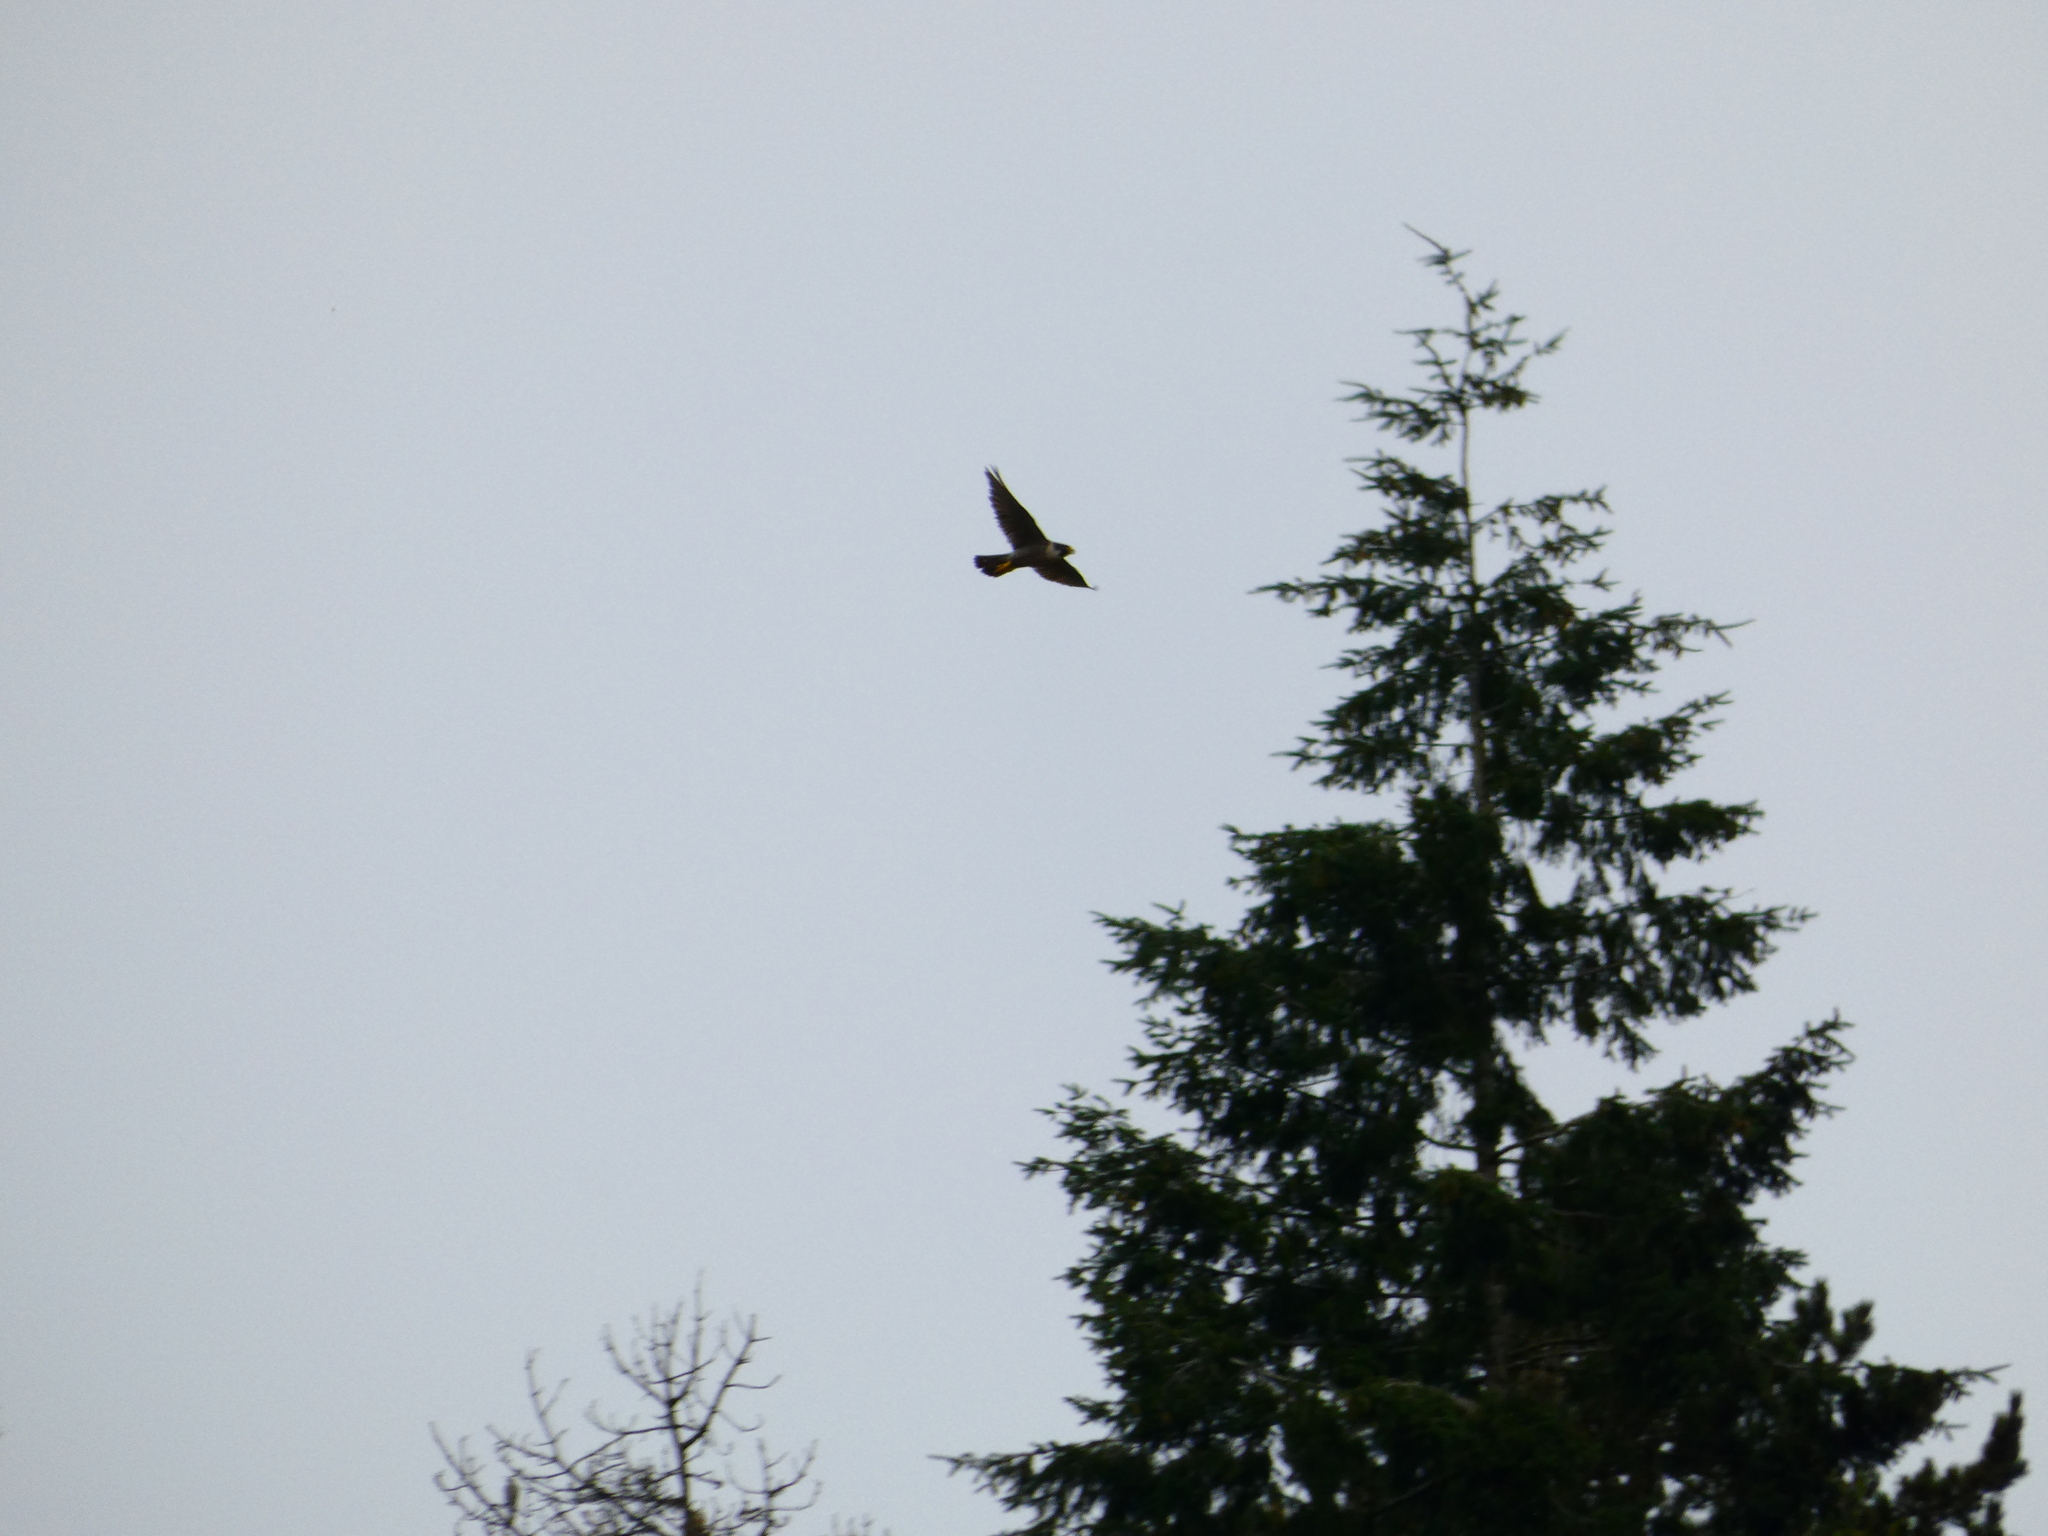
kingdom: Animalia
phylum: Chordata
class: Aves
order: Falconiformes
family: Falconidae
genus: Falco
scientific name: Falco peregrinus
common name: Peregrine falcon
